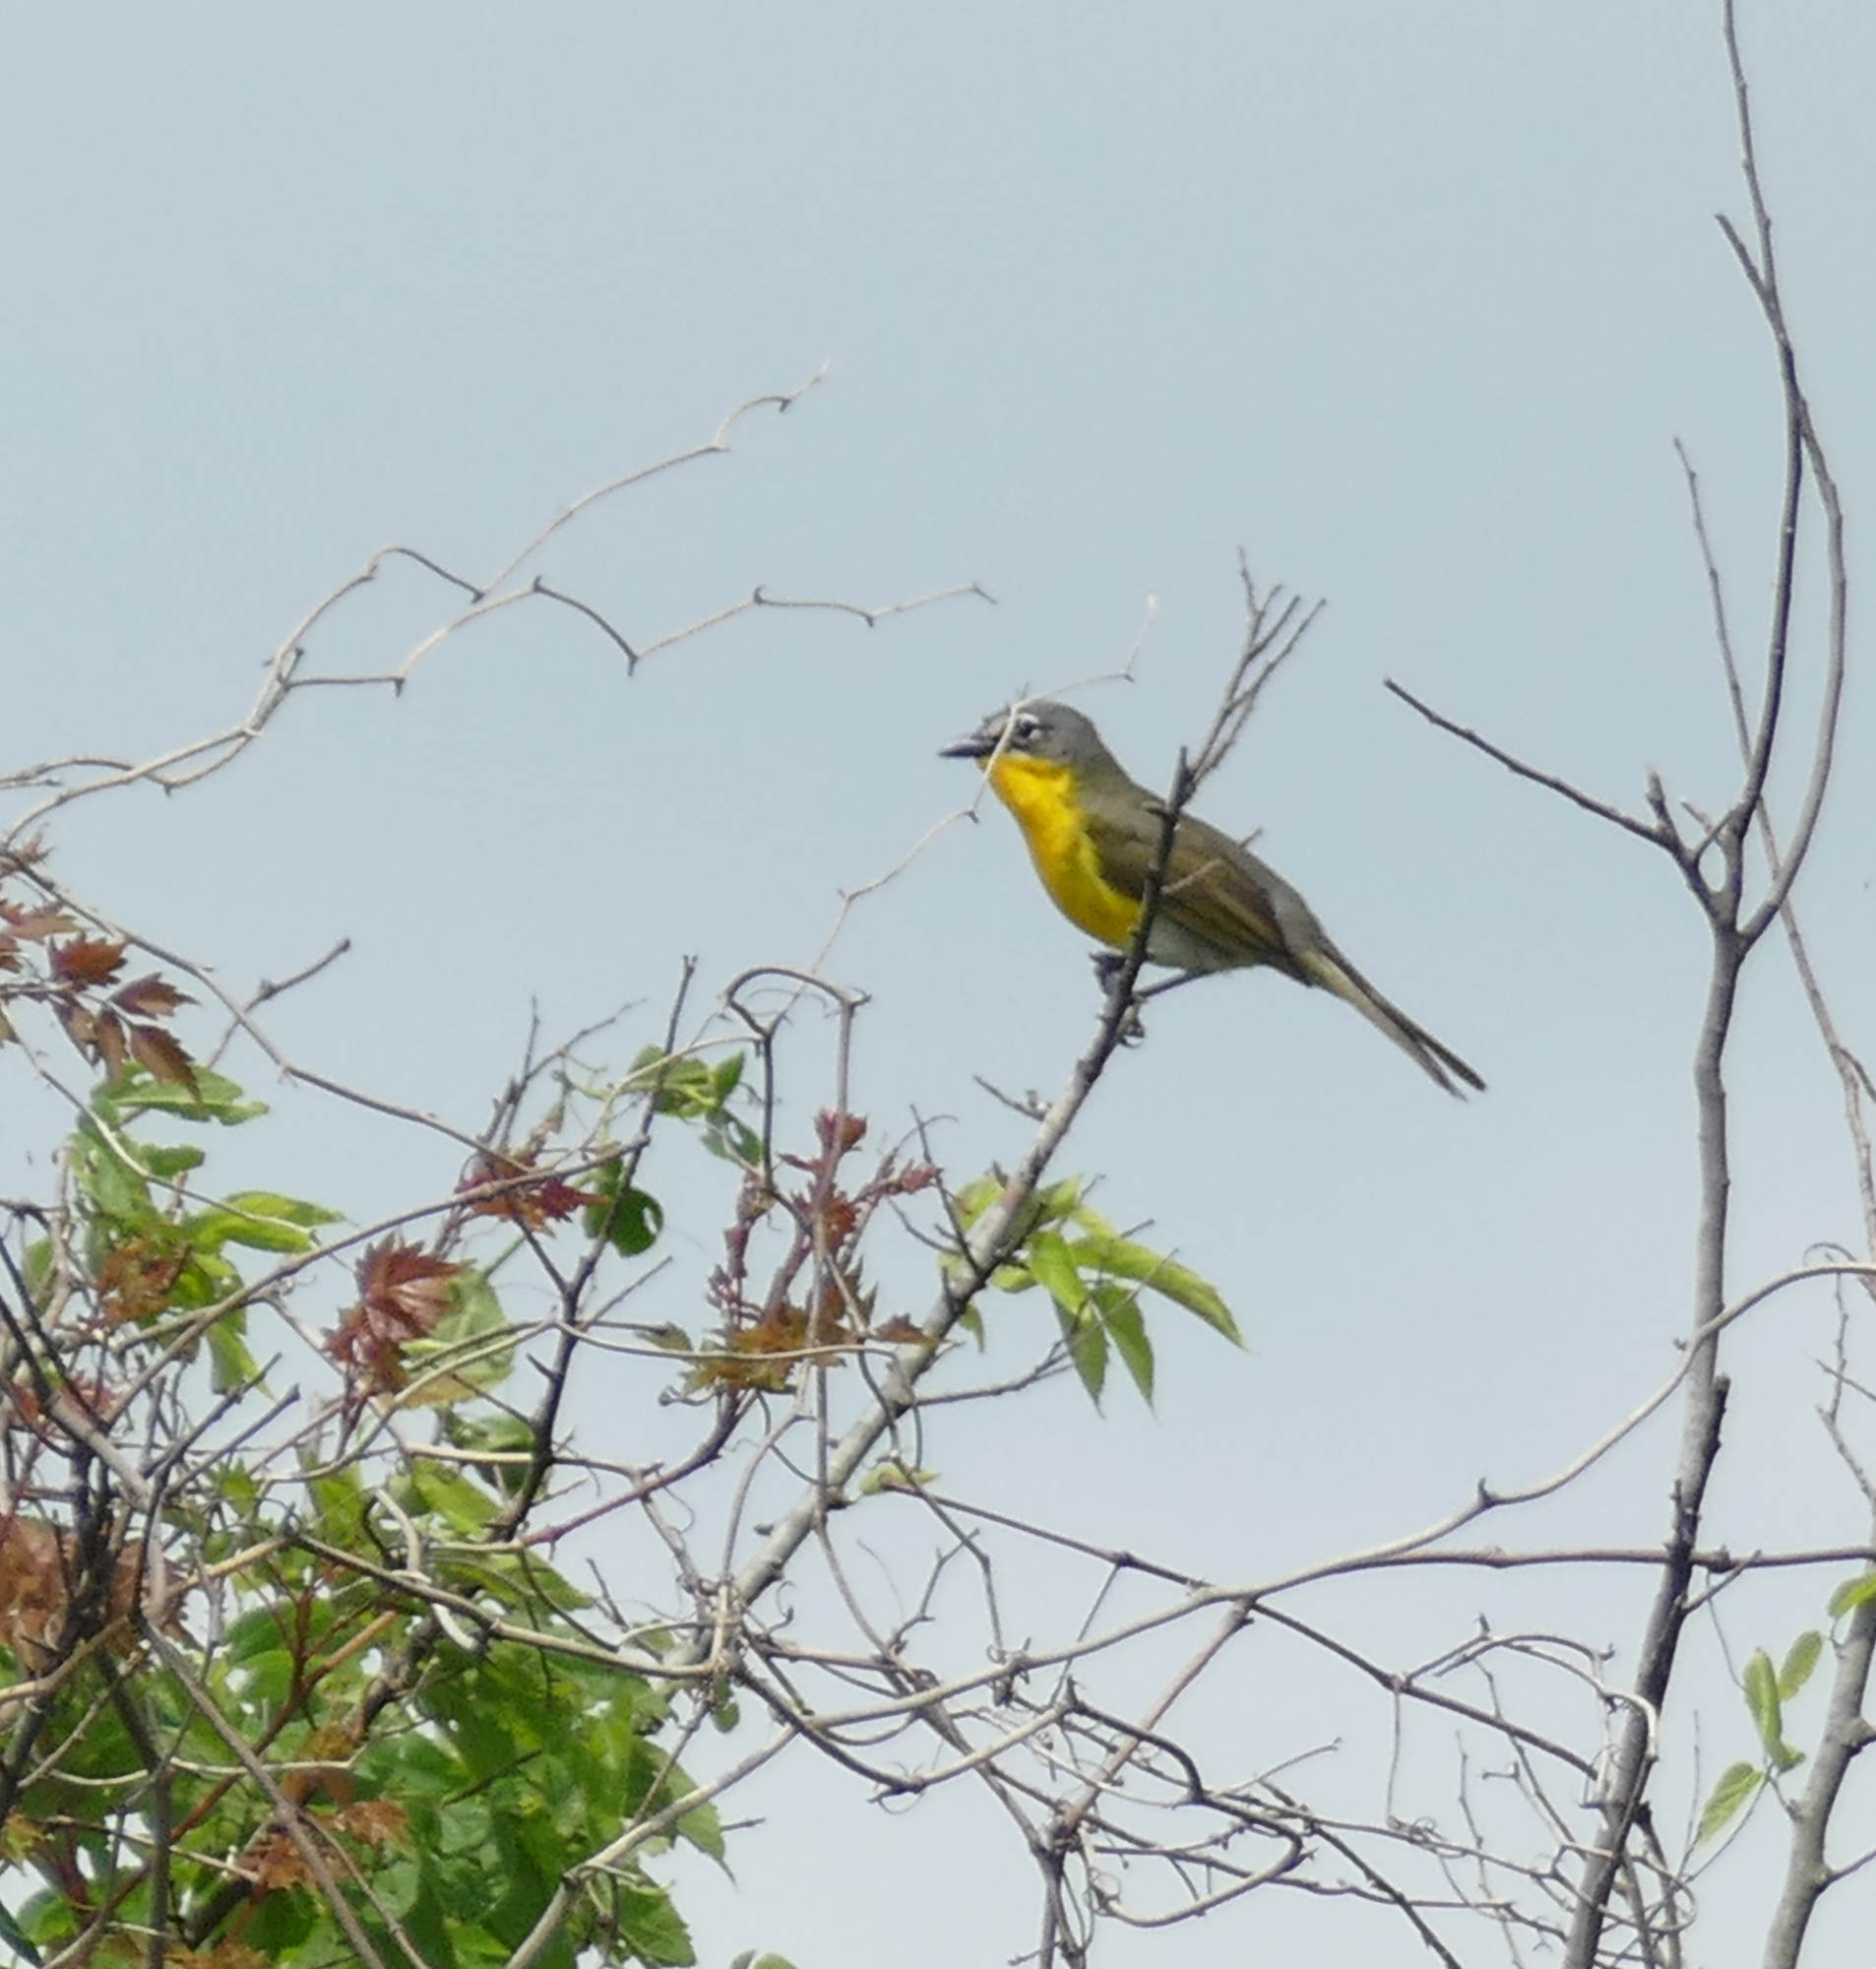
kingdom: Animalia
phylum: Chordata
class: Aves
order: Passeriformes
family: Parulidae
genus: Icteria
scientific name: Icteria virens
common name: Yellow-breasted chat
